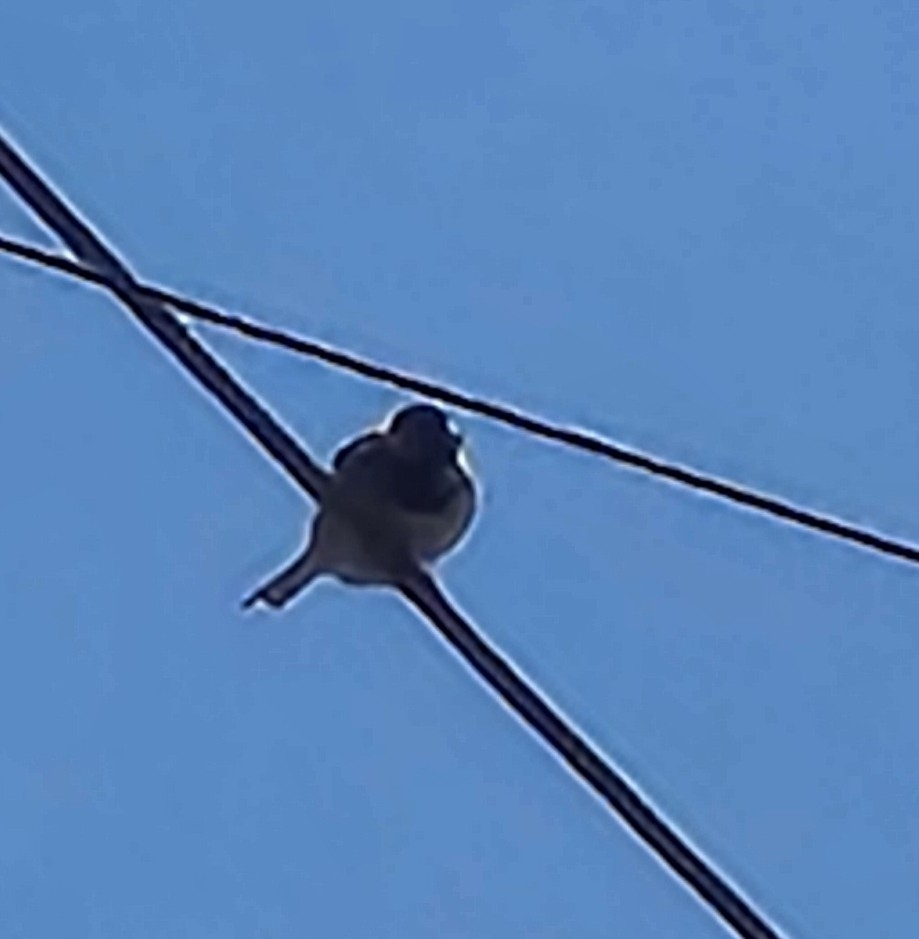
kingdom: Animalia
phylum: Chordata
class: Aves
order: Passeriformes
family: Passeridae
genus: Passer
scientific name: Passer domesticus
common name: House sparrow
